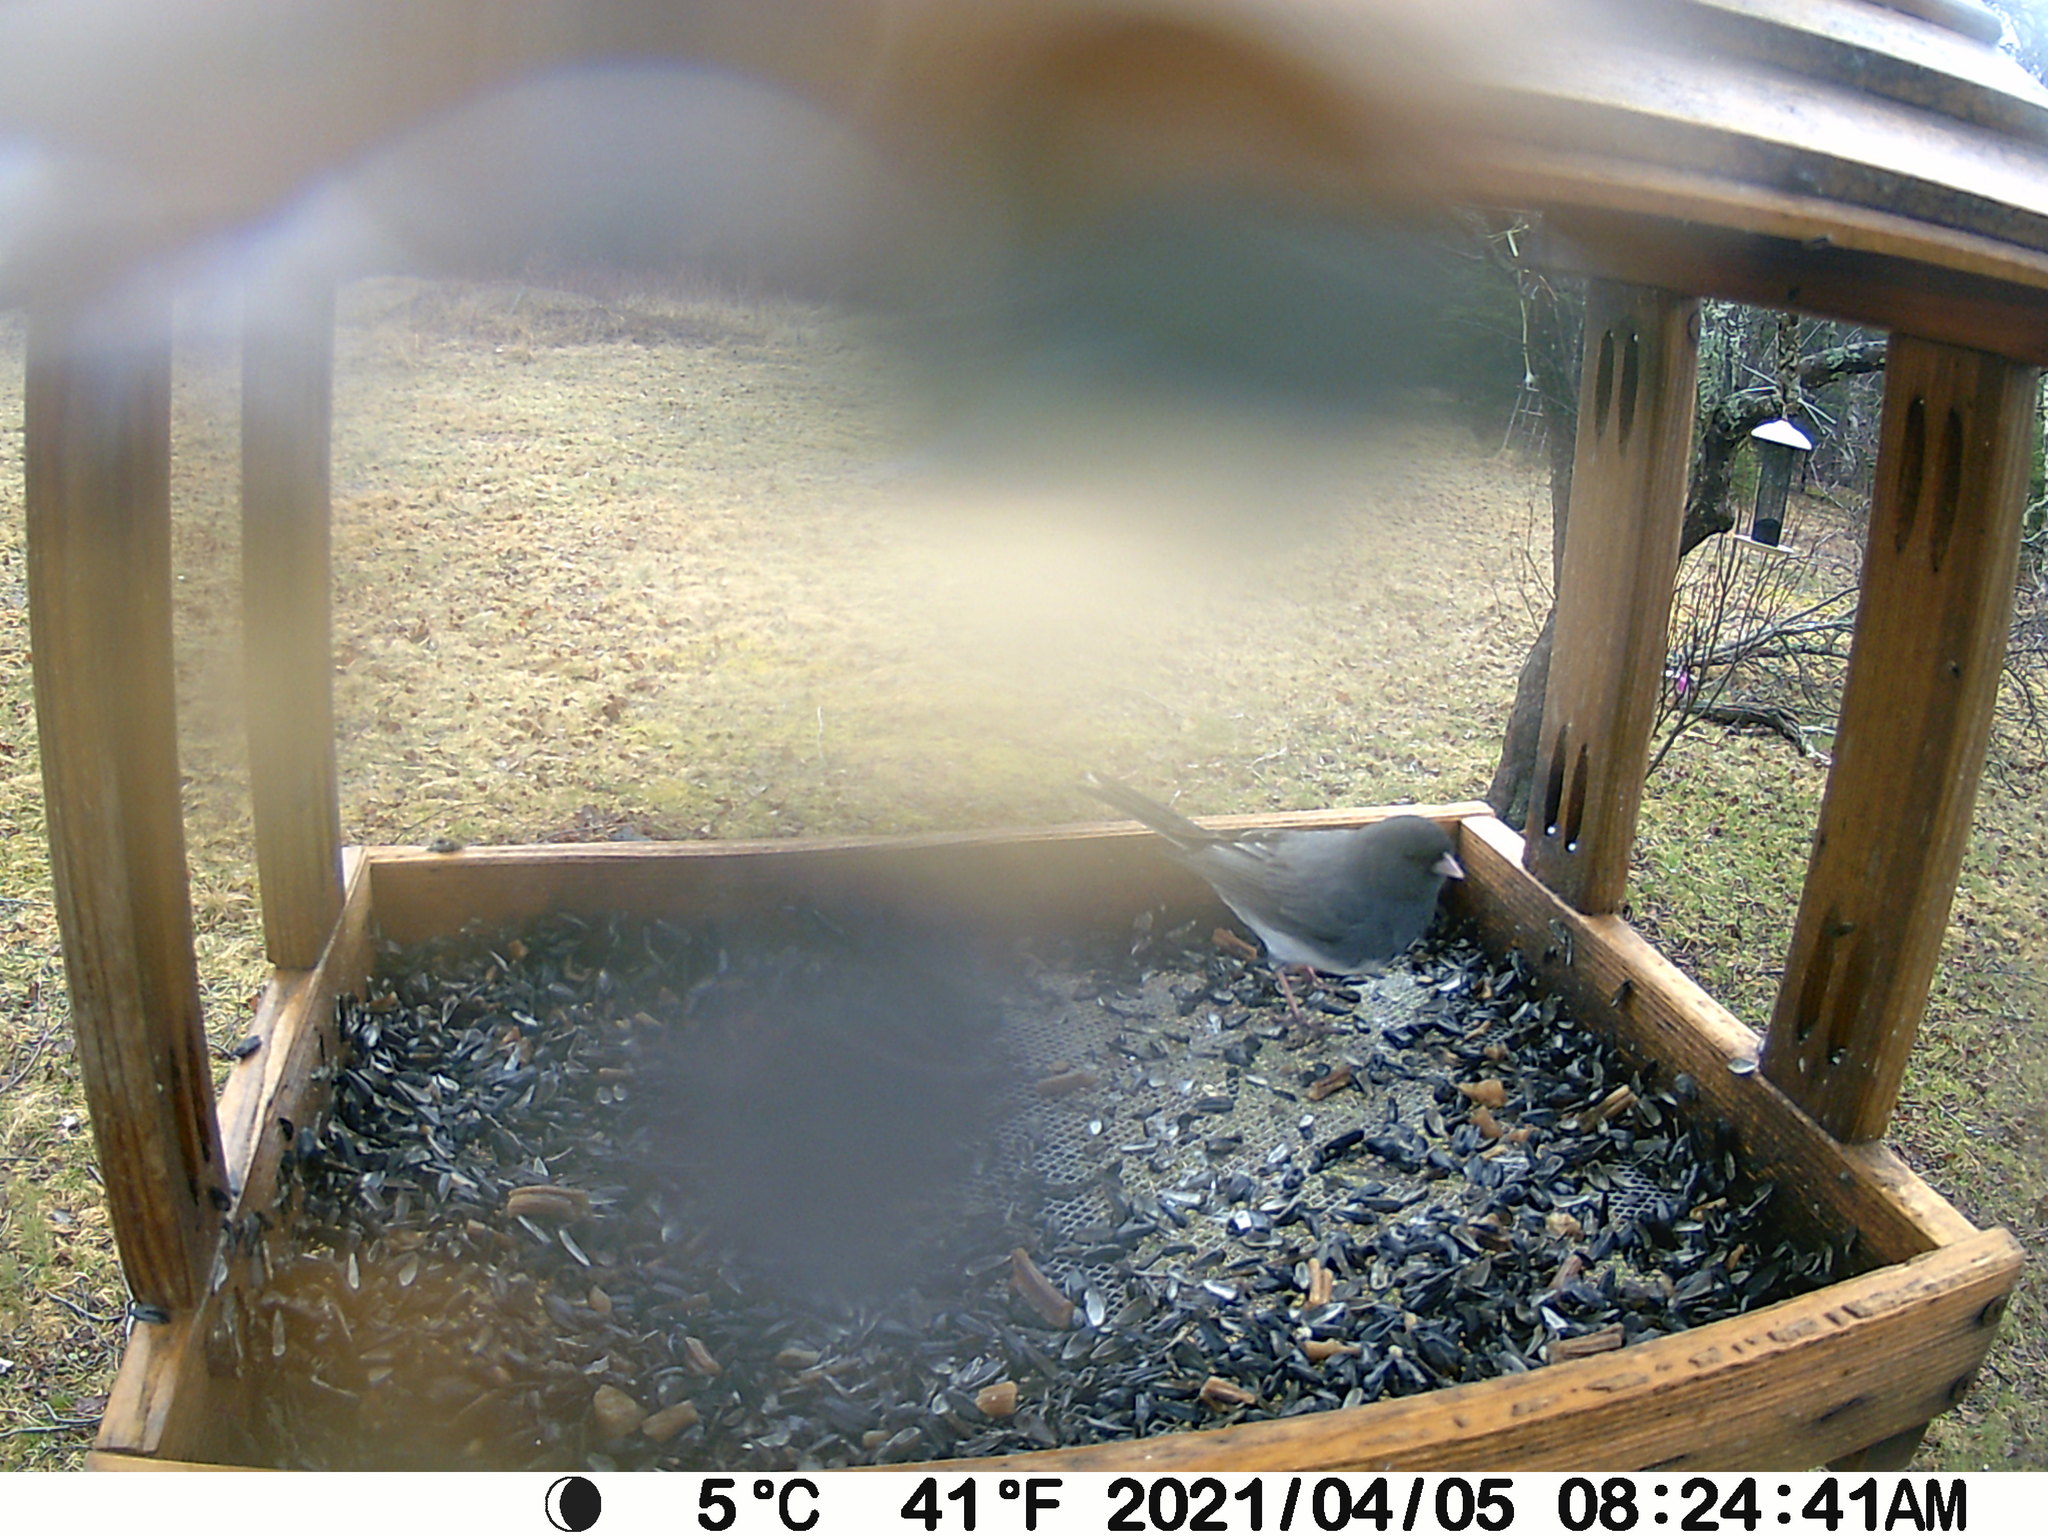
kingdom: Animalia
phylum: Chordata
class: Aves
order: Passeriformes
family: Passerellidae
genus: Junco
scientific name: Junco hyemalis
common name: Dark-eyed junco
